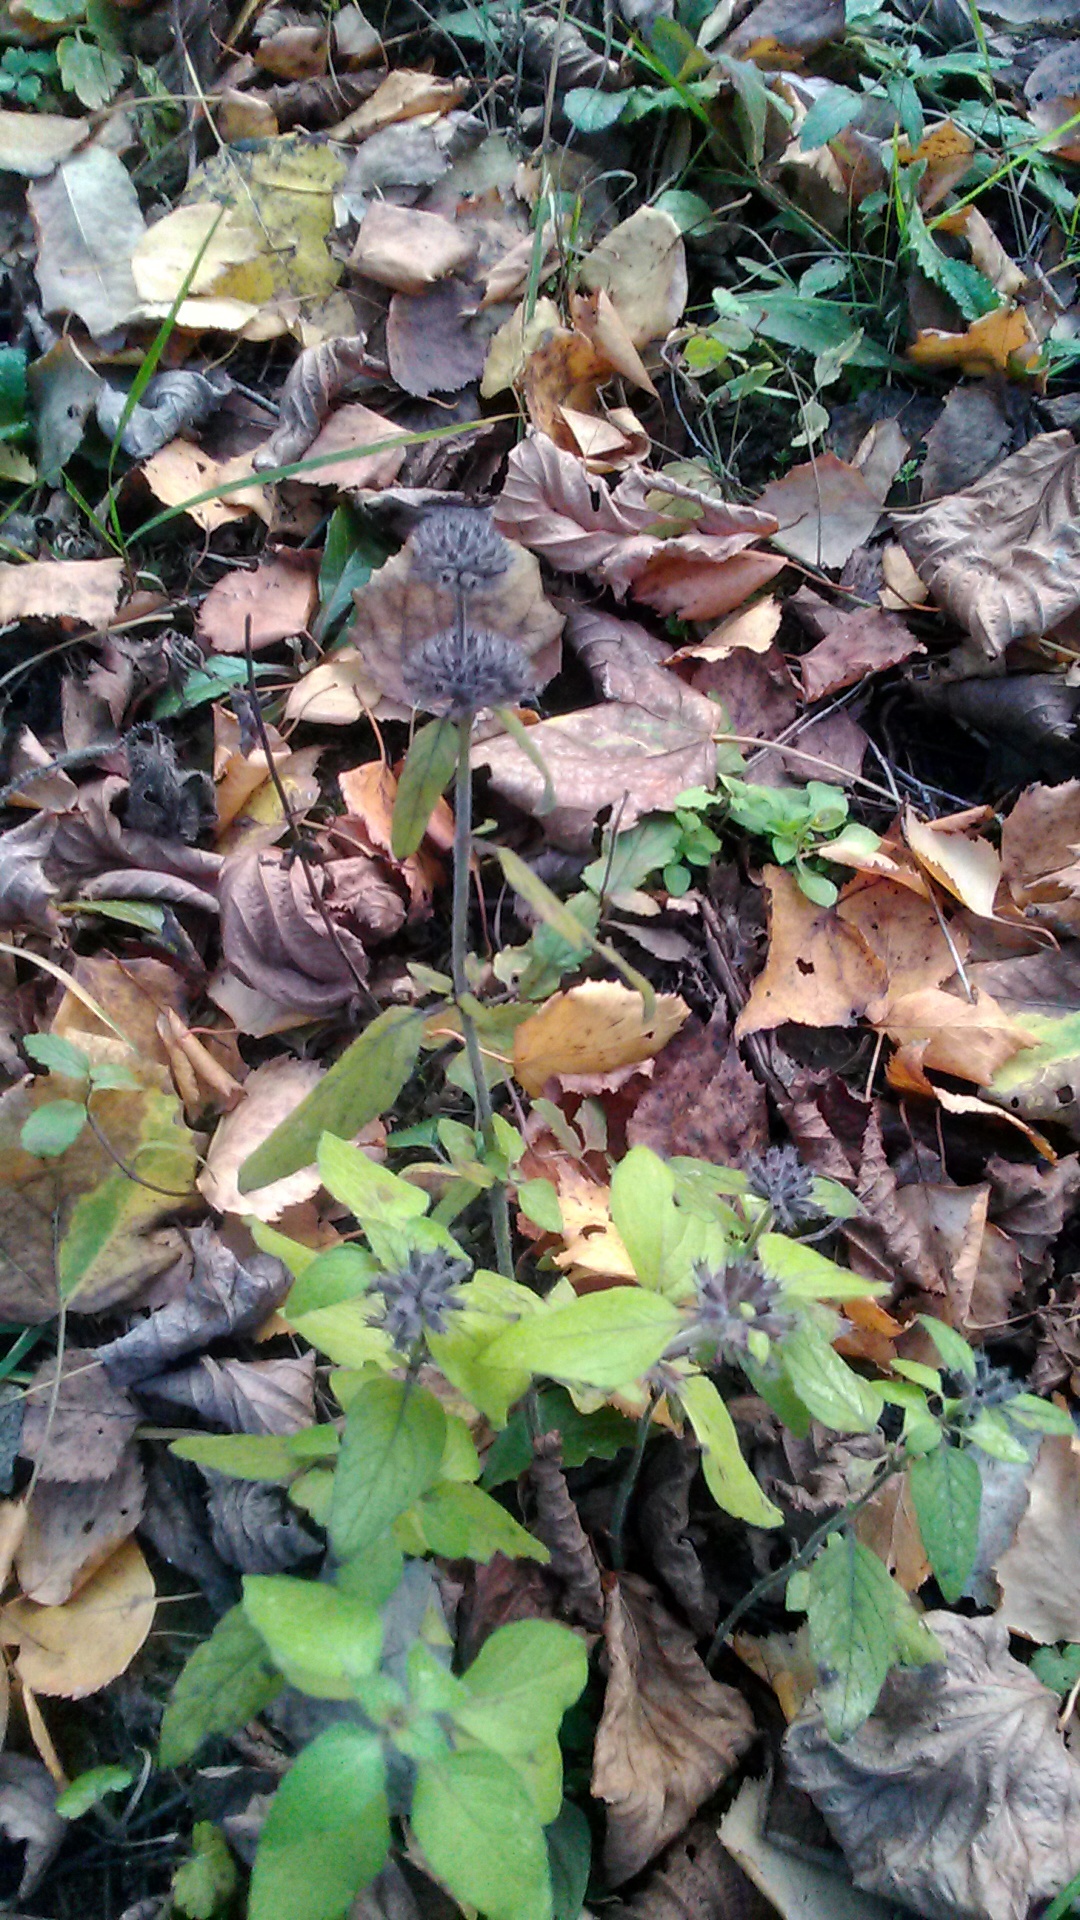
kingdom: Plantae
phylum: Tracheophyta
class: Magnoliopsida
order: Lamiales
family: Lamiaceae
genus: Clinopodium
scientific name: Clinopodium vulgare
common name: Wild basil
